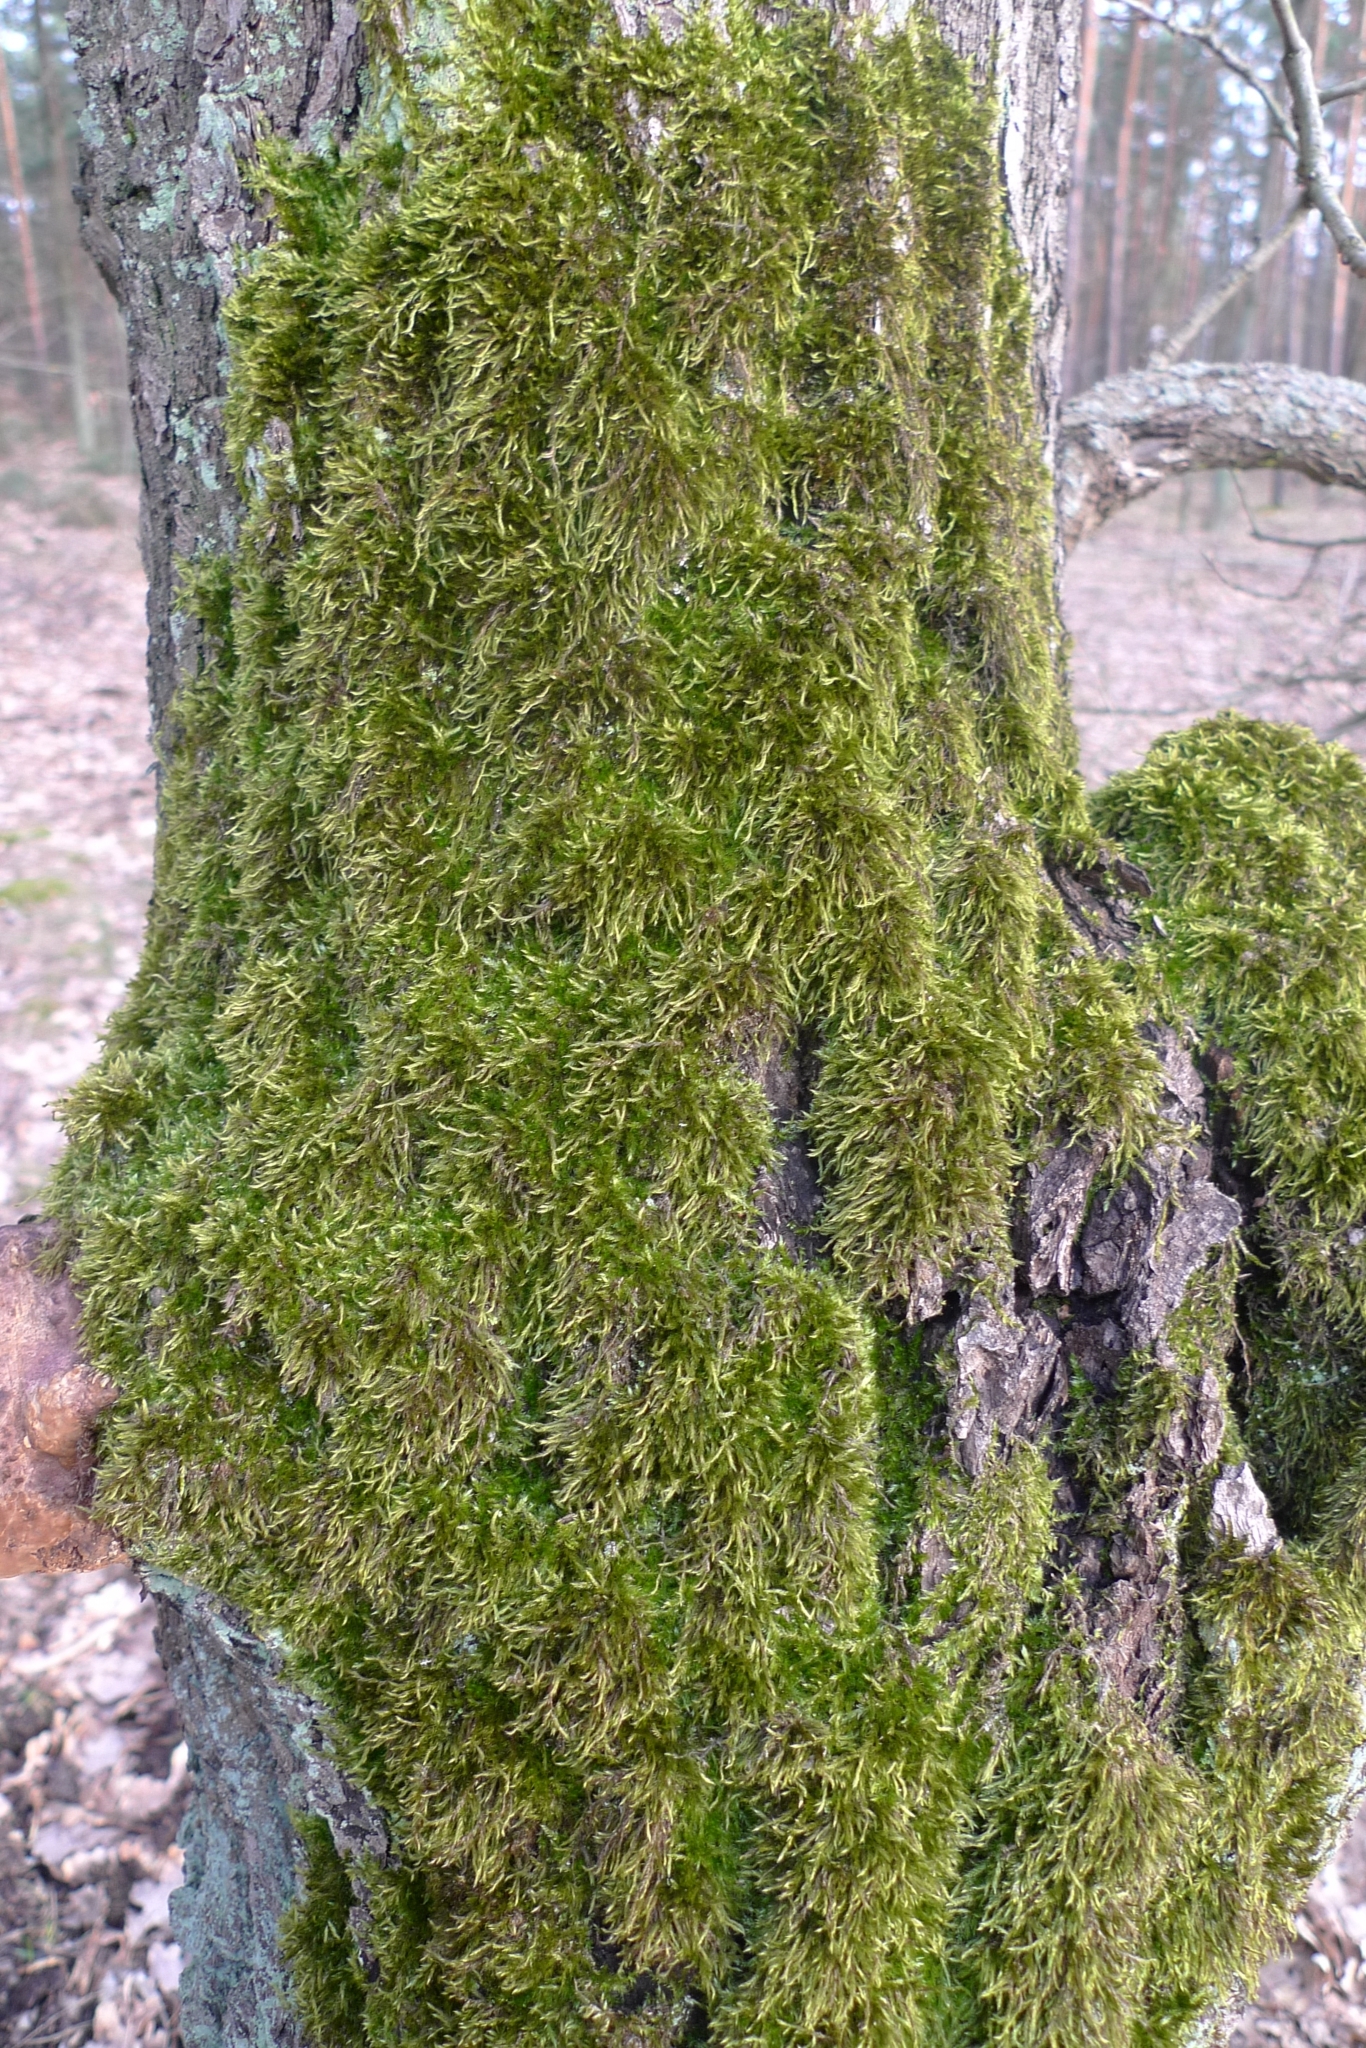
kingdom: Plantae
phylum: Bryophyta
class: Bryopsida
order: Hypnales
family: Hypnaceae
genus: Hypnum
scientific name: Hypnum cupressiforme
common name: Cypress-leaved plait-moss
